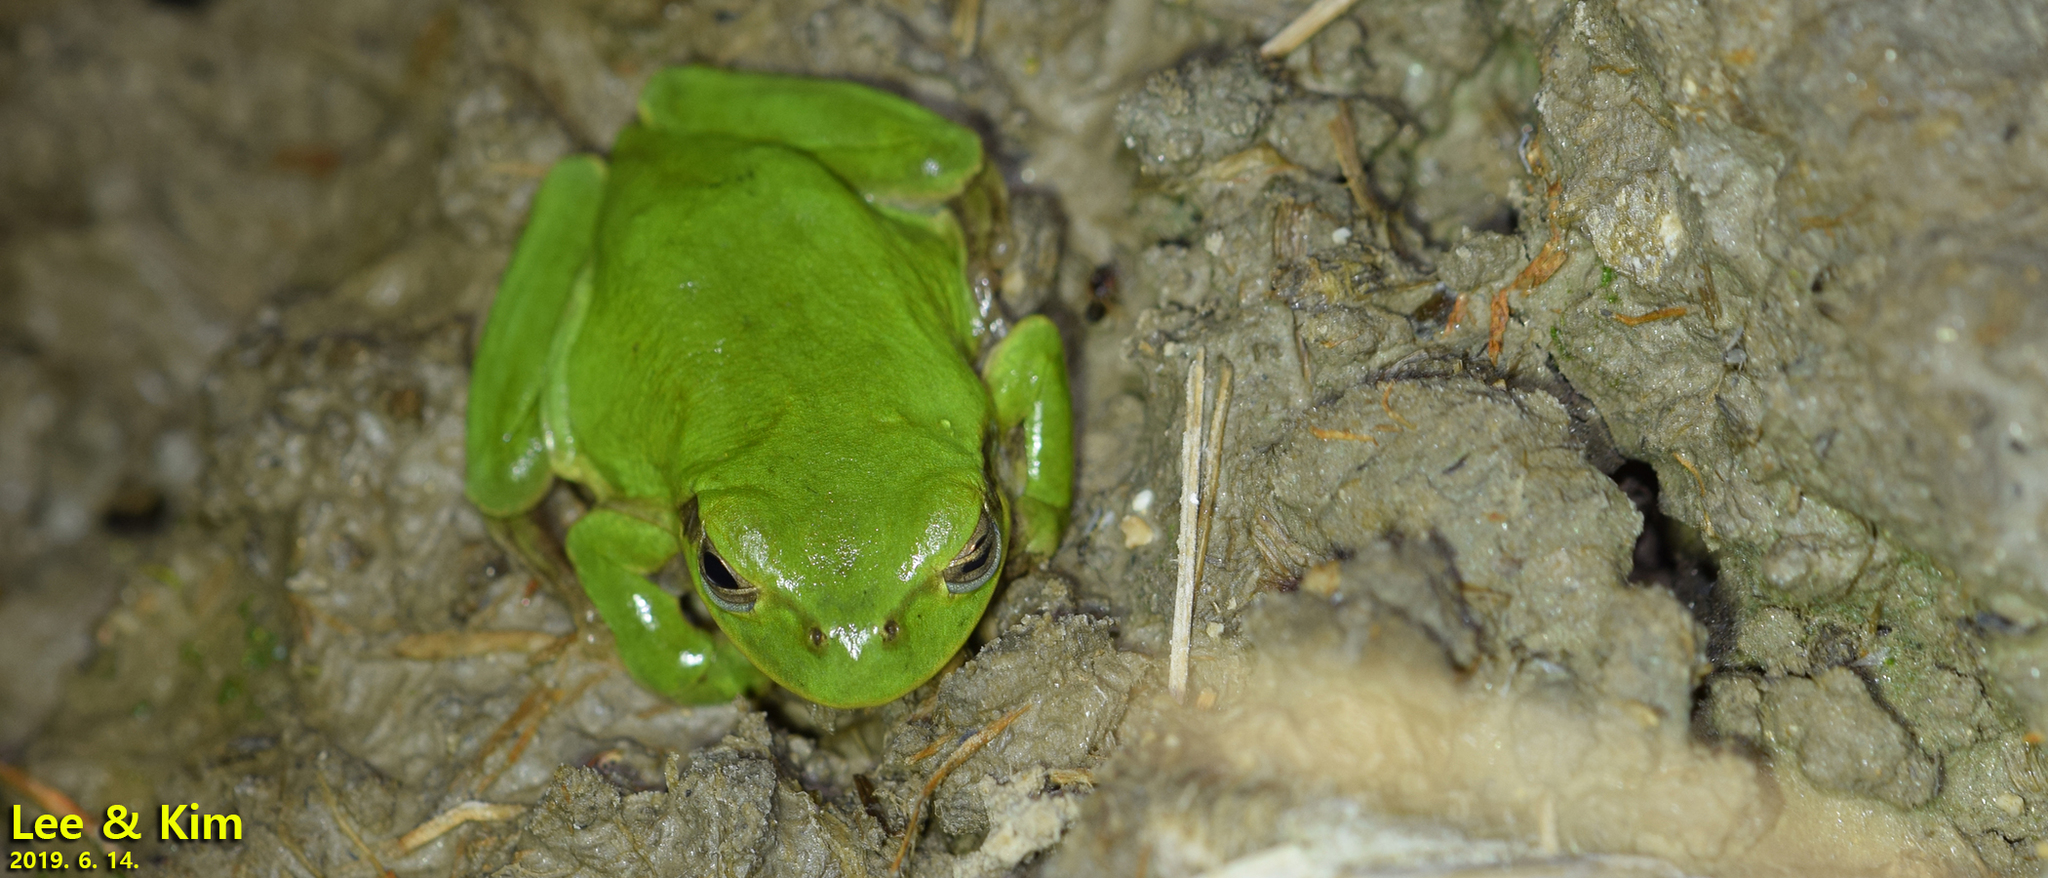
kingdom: Animalia
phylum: Chordata
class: Amphibia
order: Anura
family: Hylidae
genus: Dryophytes
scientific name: Dryophytes japonicus
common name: Japanese treefrog
